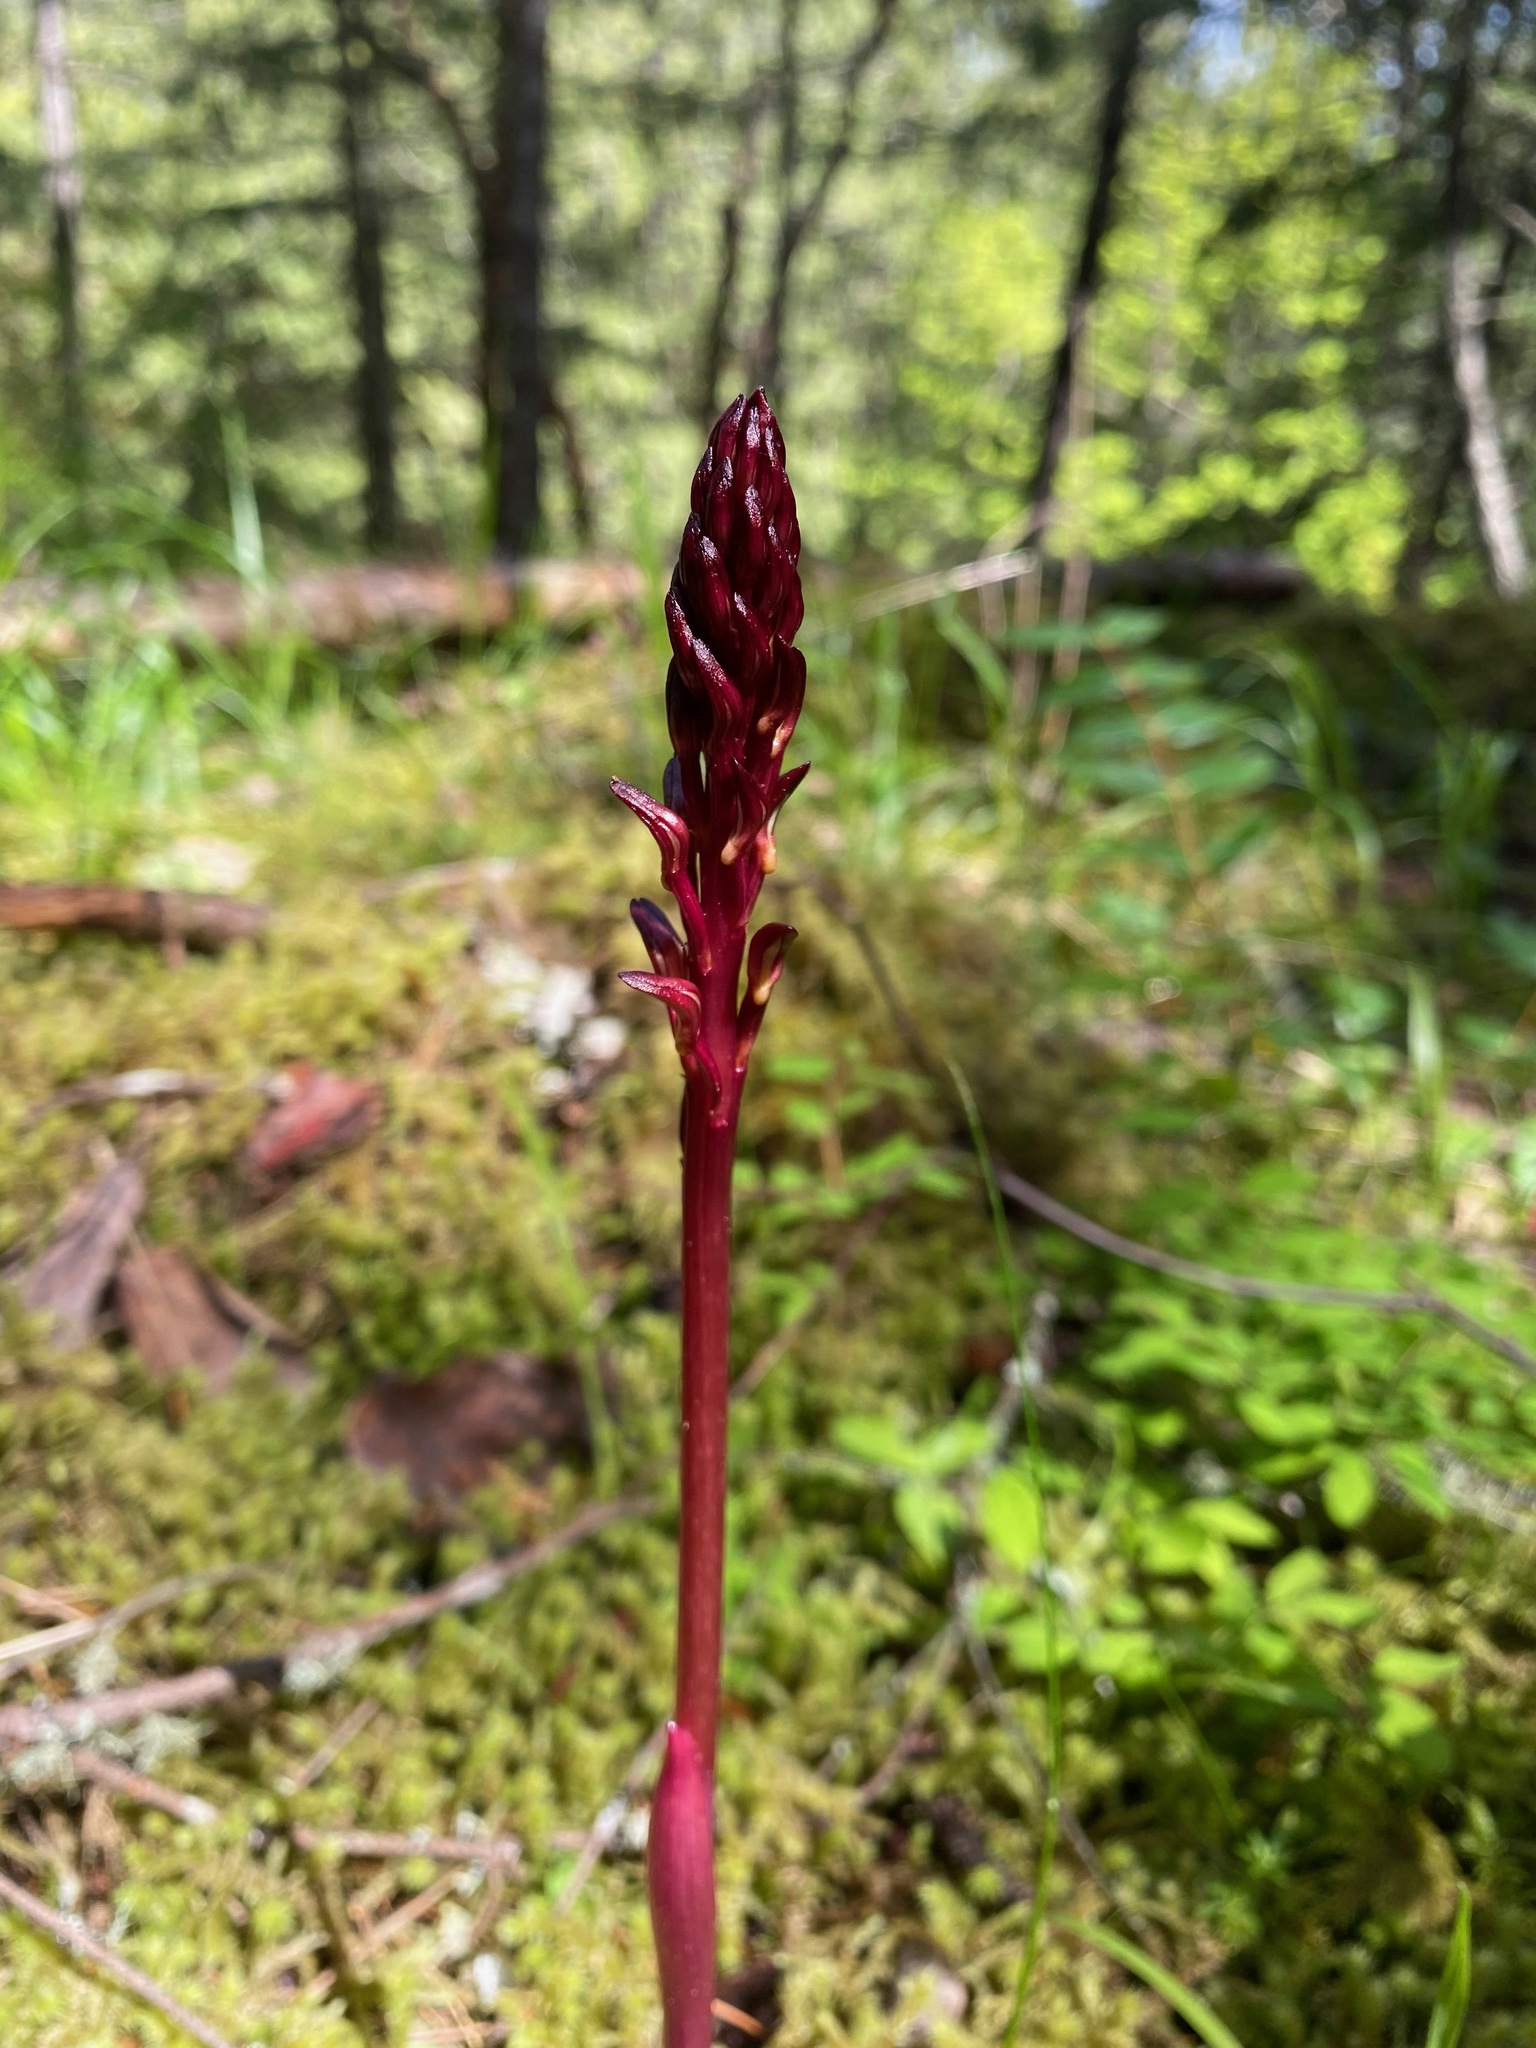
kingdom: Plantae
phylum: Tracheophyta
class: Liliopsida
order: Asparagales
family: Orchidaceae
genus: Corallorhiza
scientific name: Corallorhiza maculata
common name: Spotted coralroot
